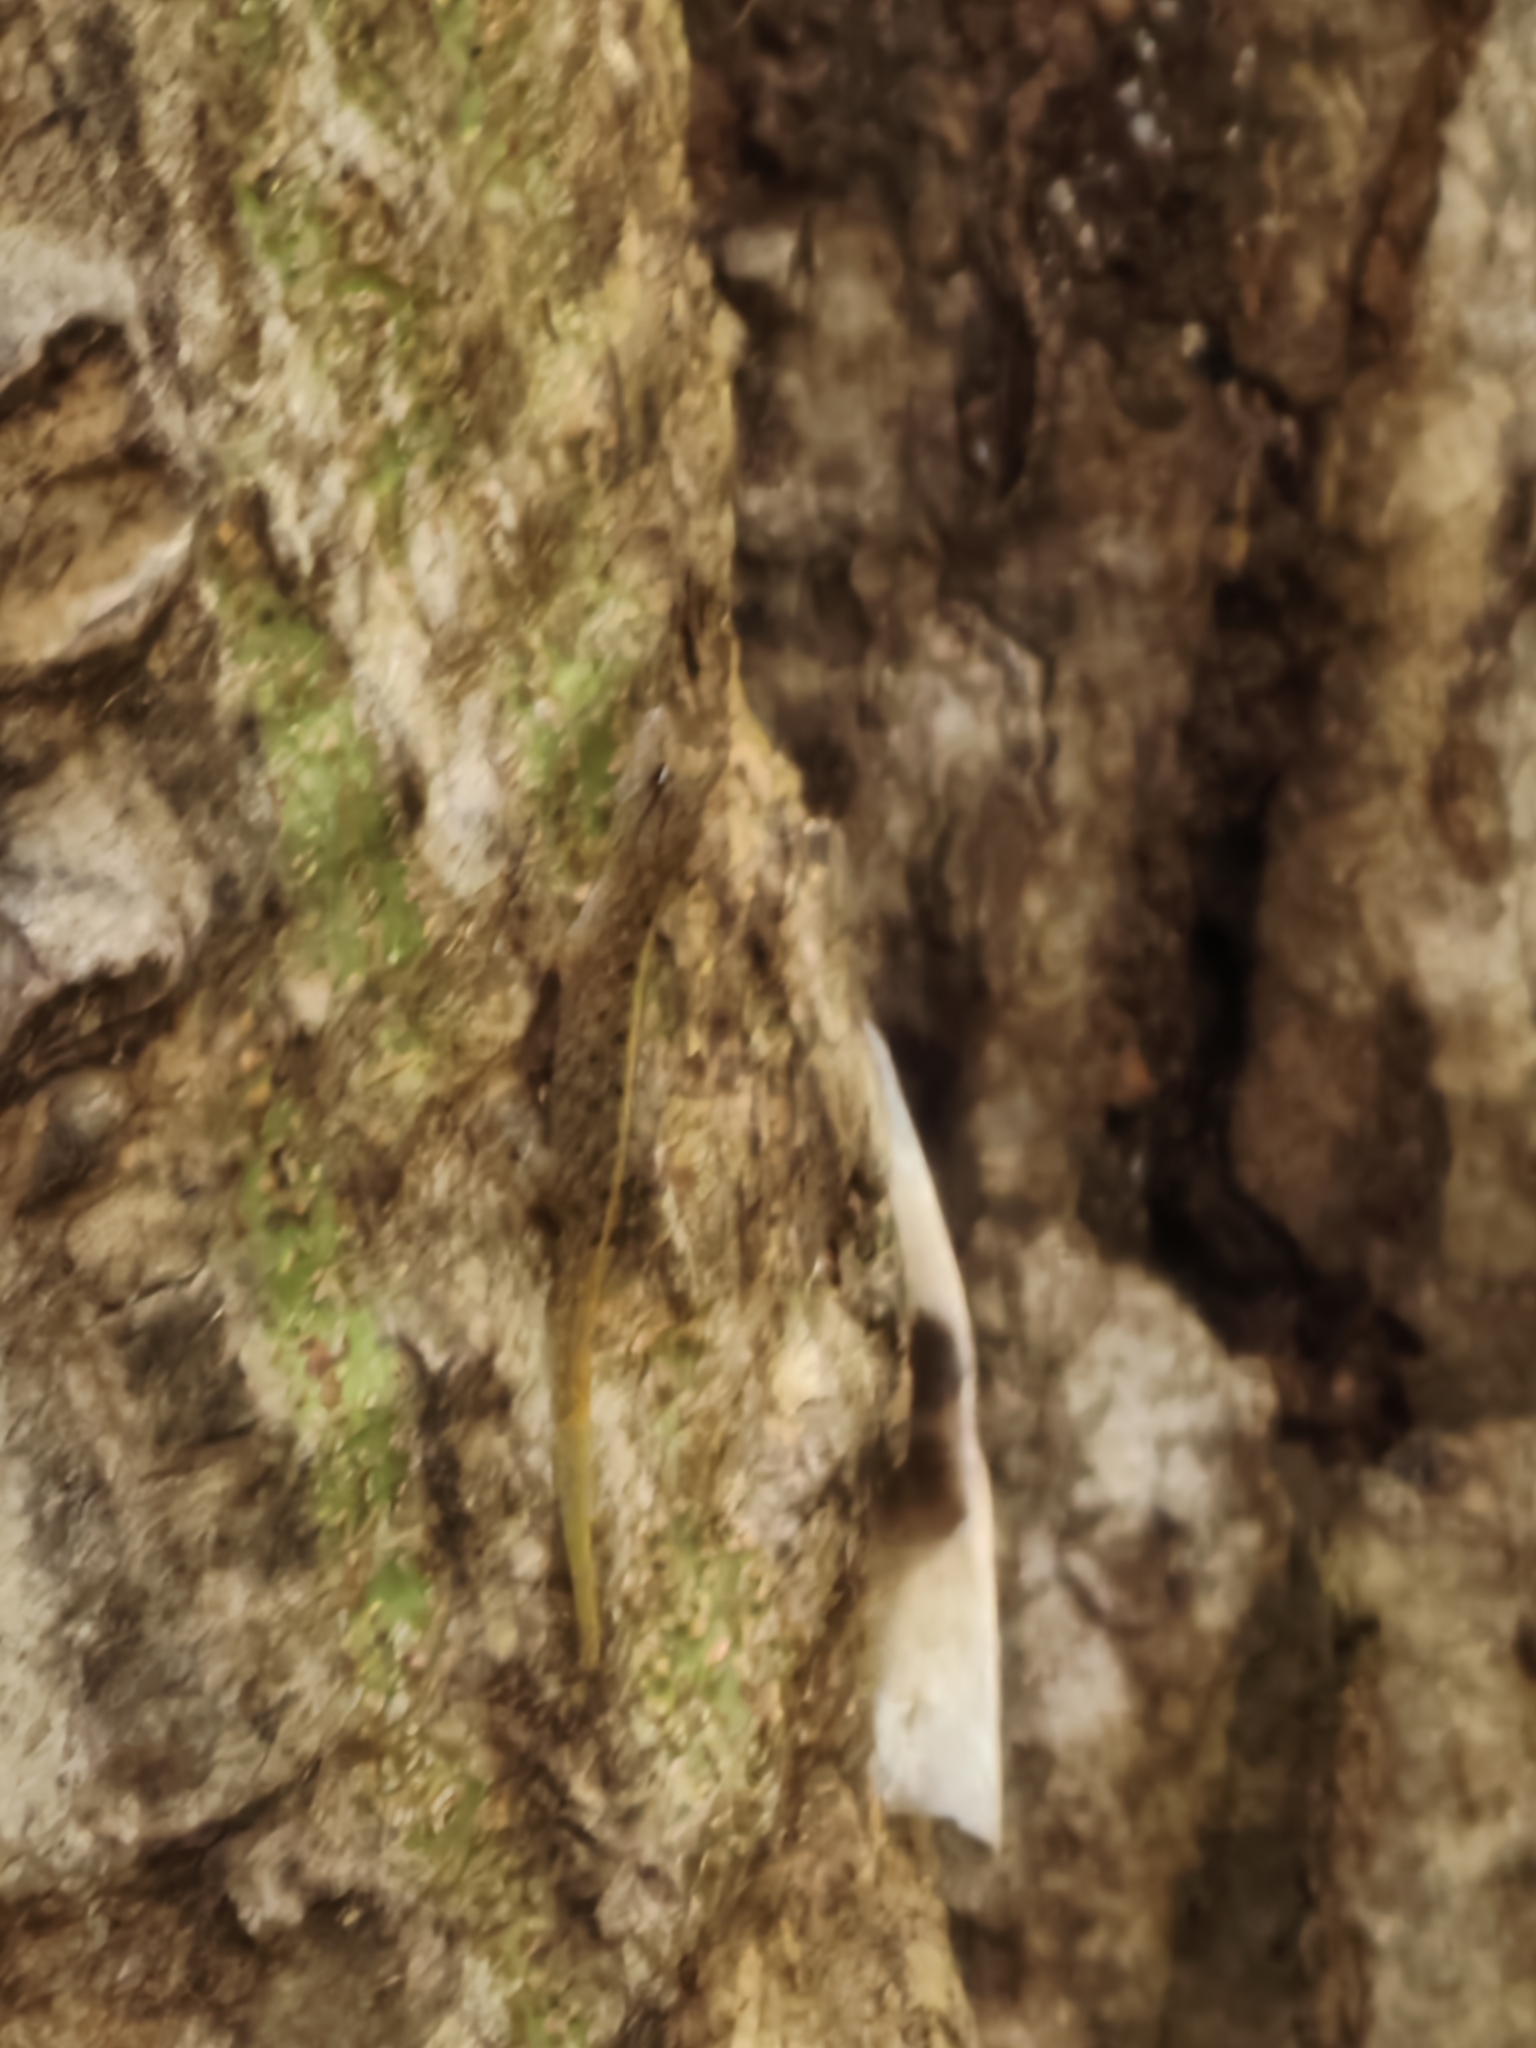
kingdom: Animalia
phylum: Chordata
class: Squamata
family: Gekkonidae
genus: Cnemaspis
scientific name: Cnemaspis mysoriensis
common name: Mysore day gecko
